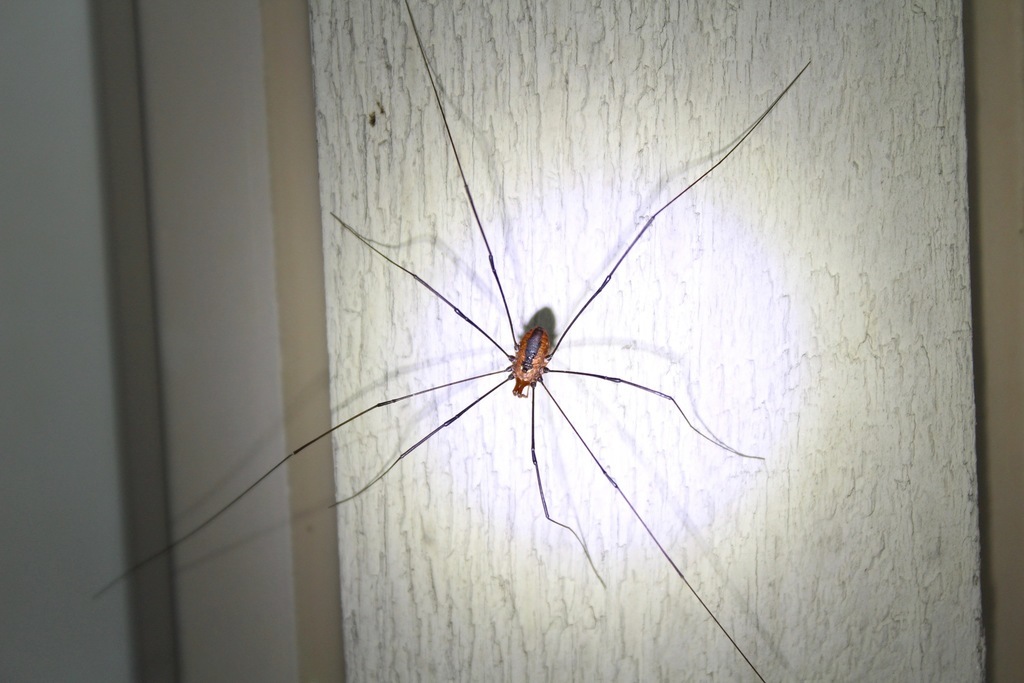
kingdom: Animalia
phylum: Arthropoda
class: Arachnida
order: Opiliones
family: Sclerosomatidae
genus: Leiobunum
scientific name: Leiobunum vittatum
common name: Eastern harvestman
